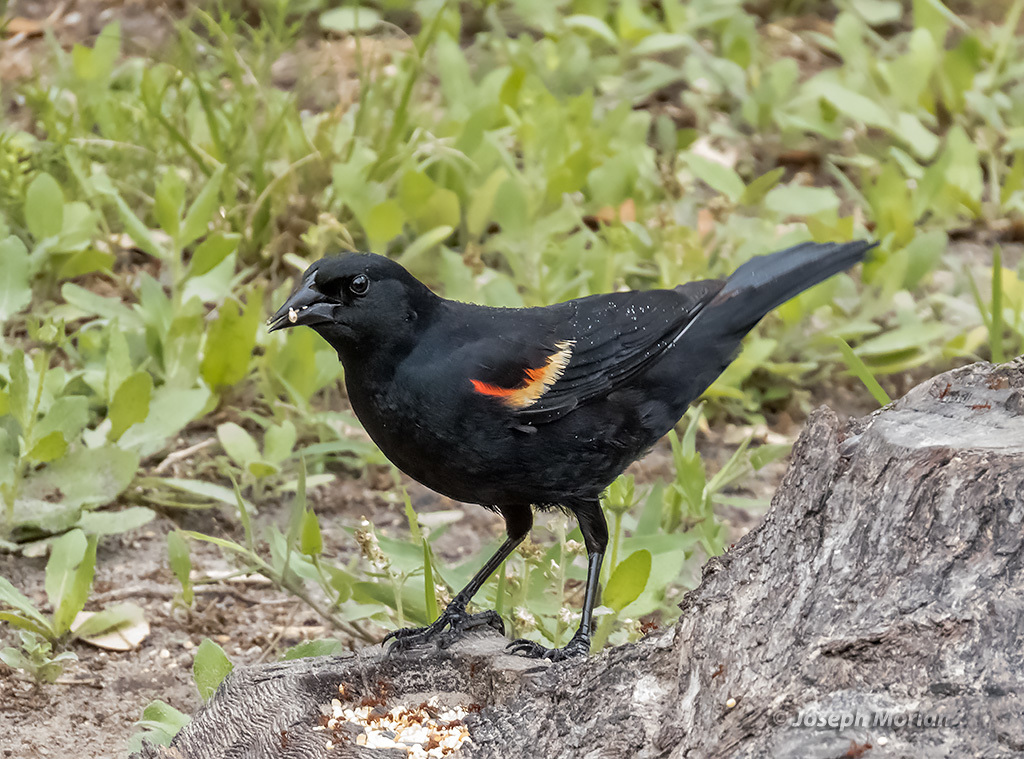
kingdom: Animalia
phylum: Chordata
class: Aves
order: Passeriformes
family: Icteridae
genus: Agelaius
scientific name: Agelaius phoeniceus
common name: Red-winged blackbird
